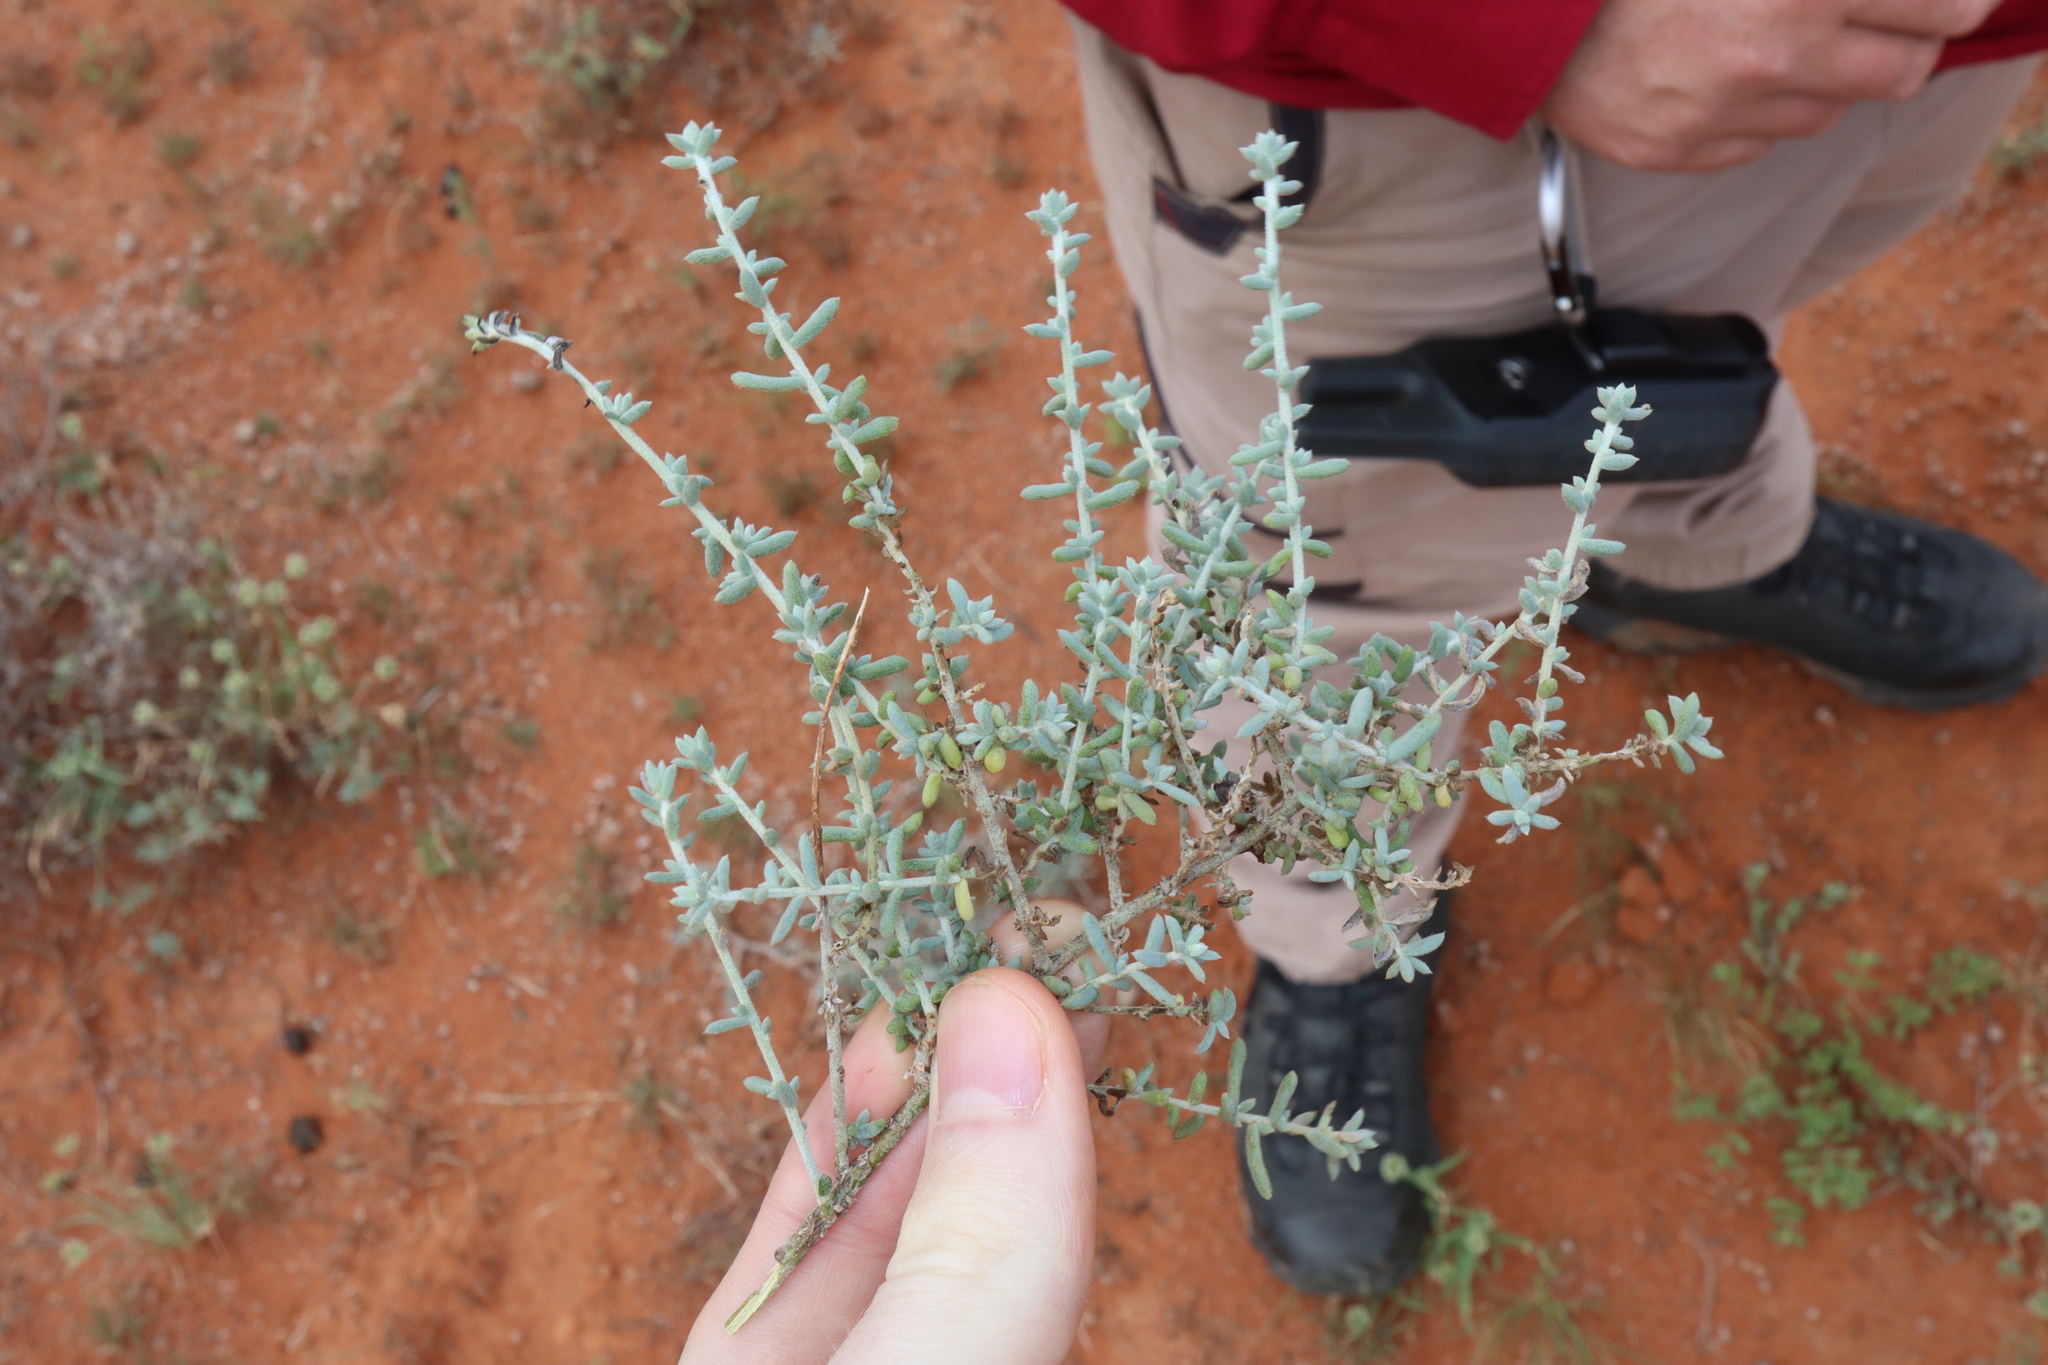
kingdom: Plantae
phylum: Tracheophyta
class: Magnoliopsida
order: Caryophyllales
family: Amaranthaceae
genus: Maireana
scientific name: Maireana pyramidata
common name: Sagobush
